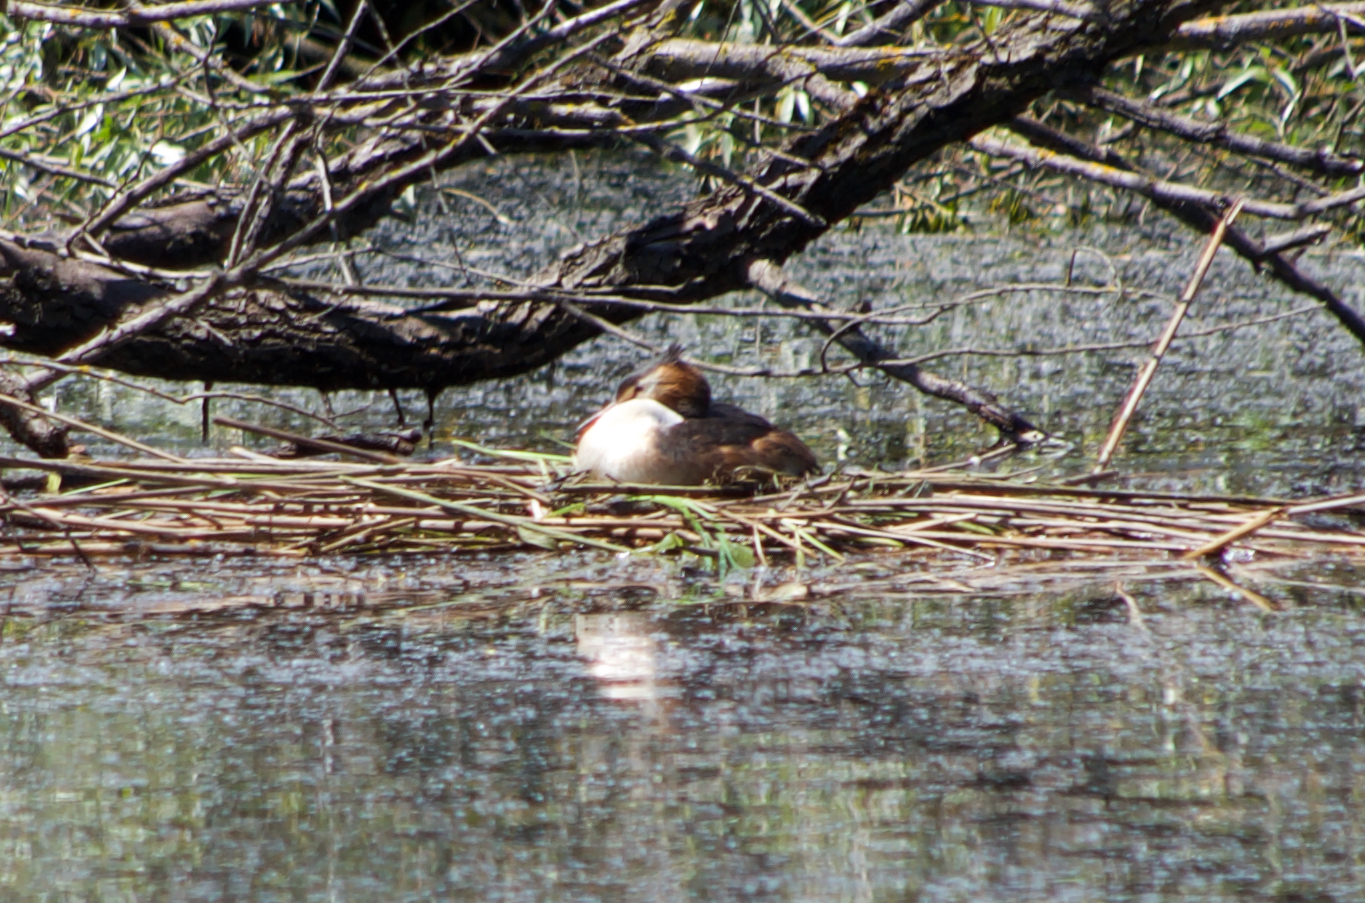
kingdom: Animalia
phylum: Chordata
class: Aves
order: Podicipediformes
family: Podicipedidae
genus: Podiceps
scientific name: Podiceps cristatus
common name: Great crested grebe
